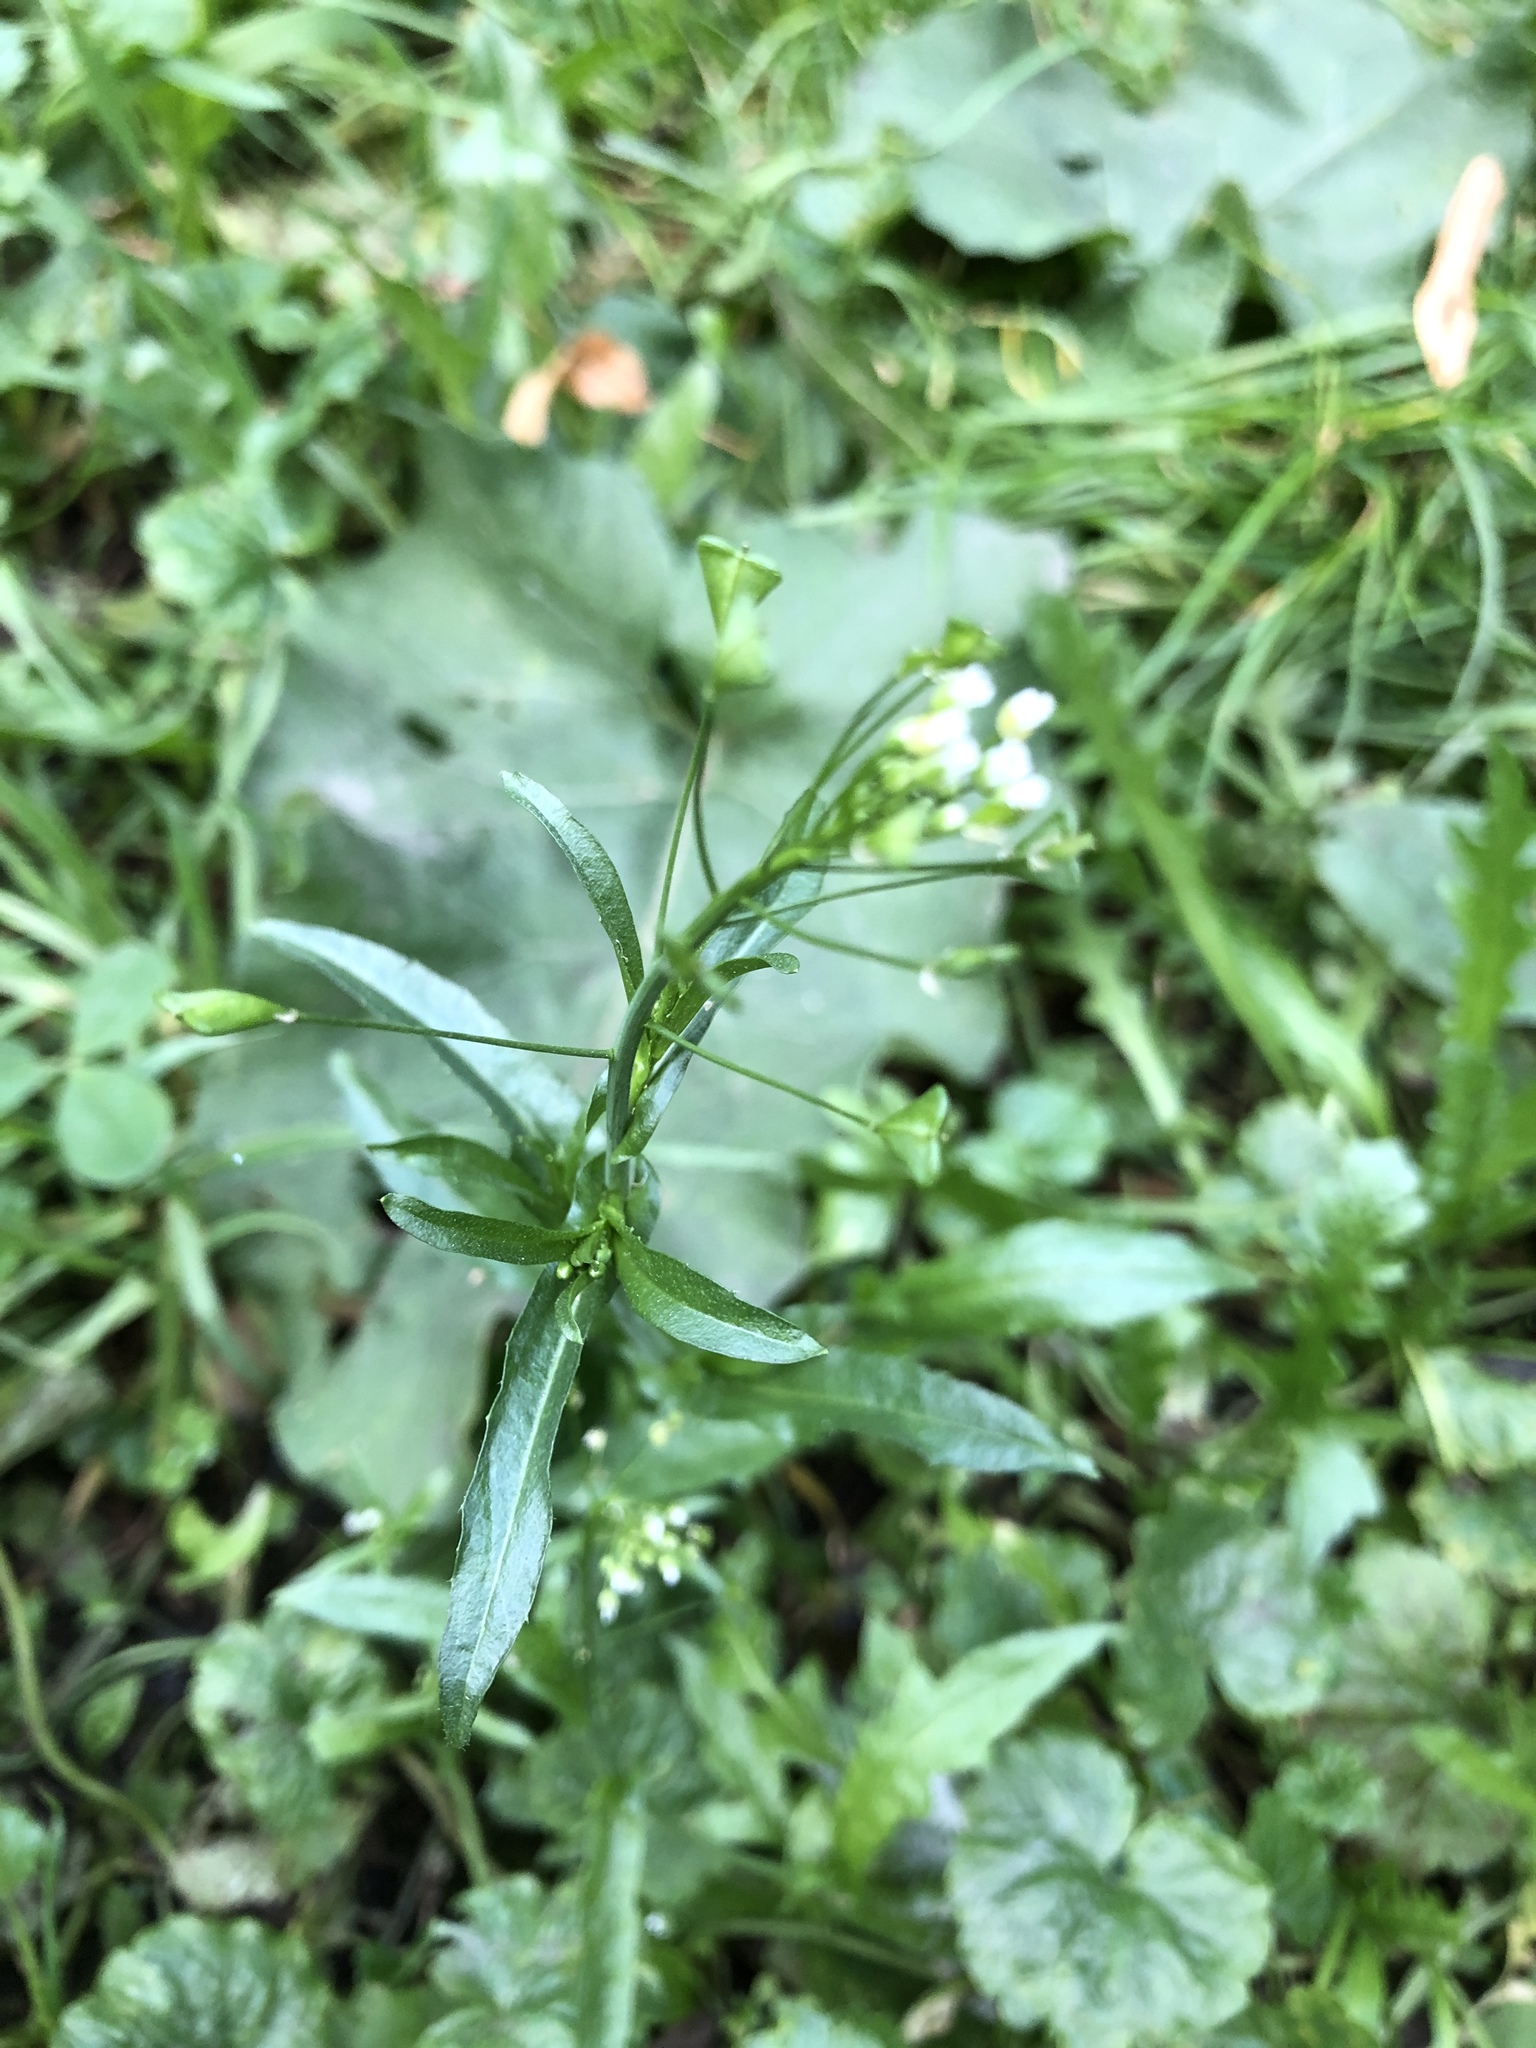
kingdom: Plantae
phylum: Tracheophyta
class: Magnoliopsida
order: Brassicales
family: Brassicaceae
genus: Capsella
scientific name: Capsella bursa-pastoris
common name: Shepherd's purse
